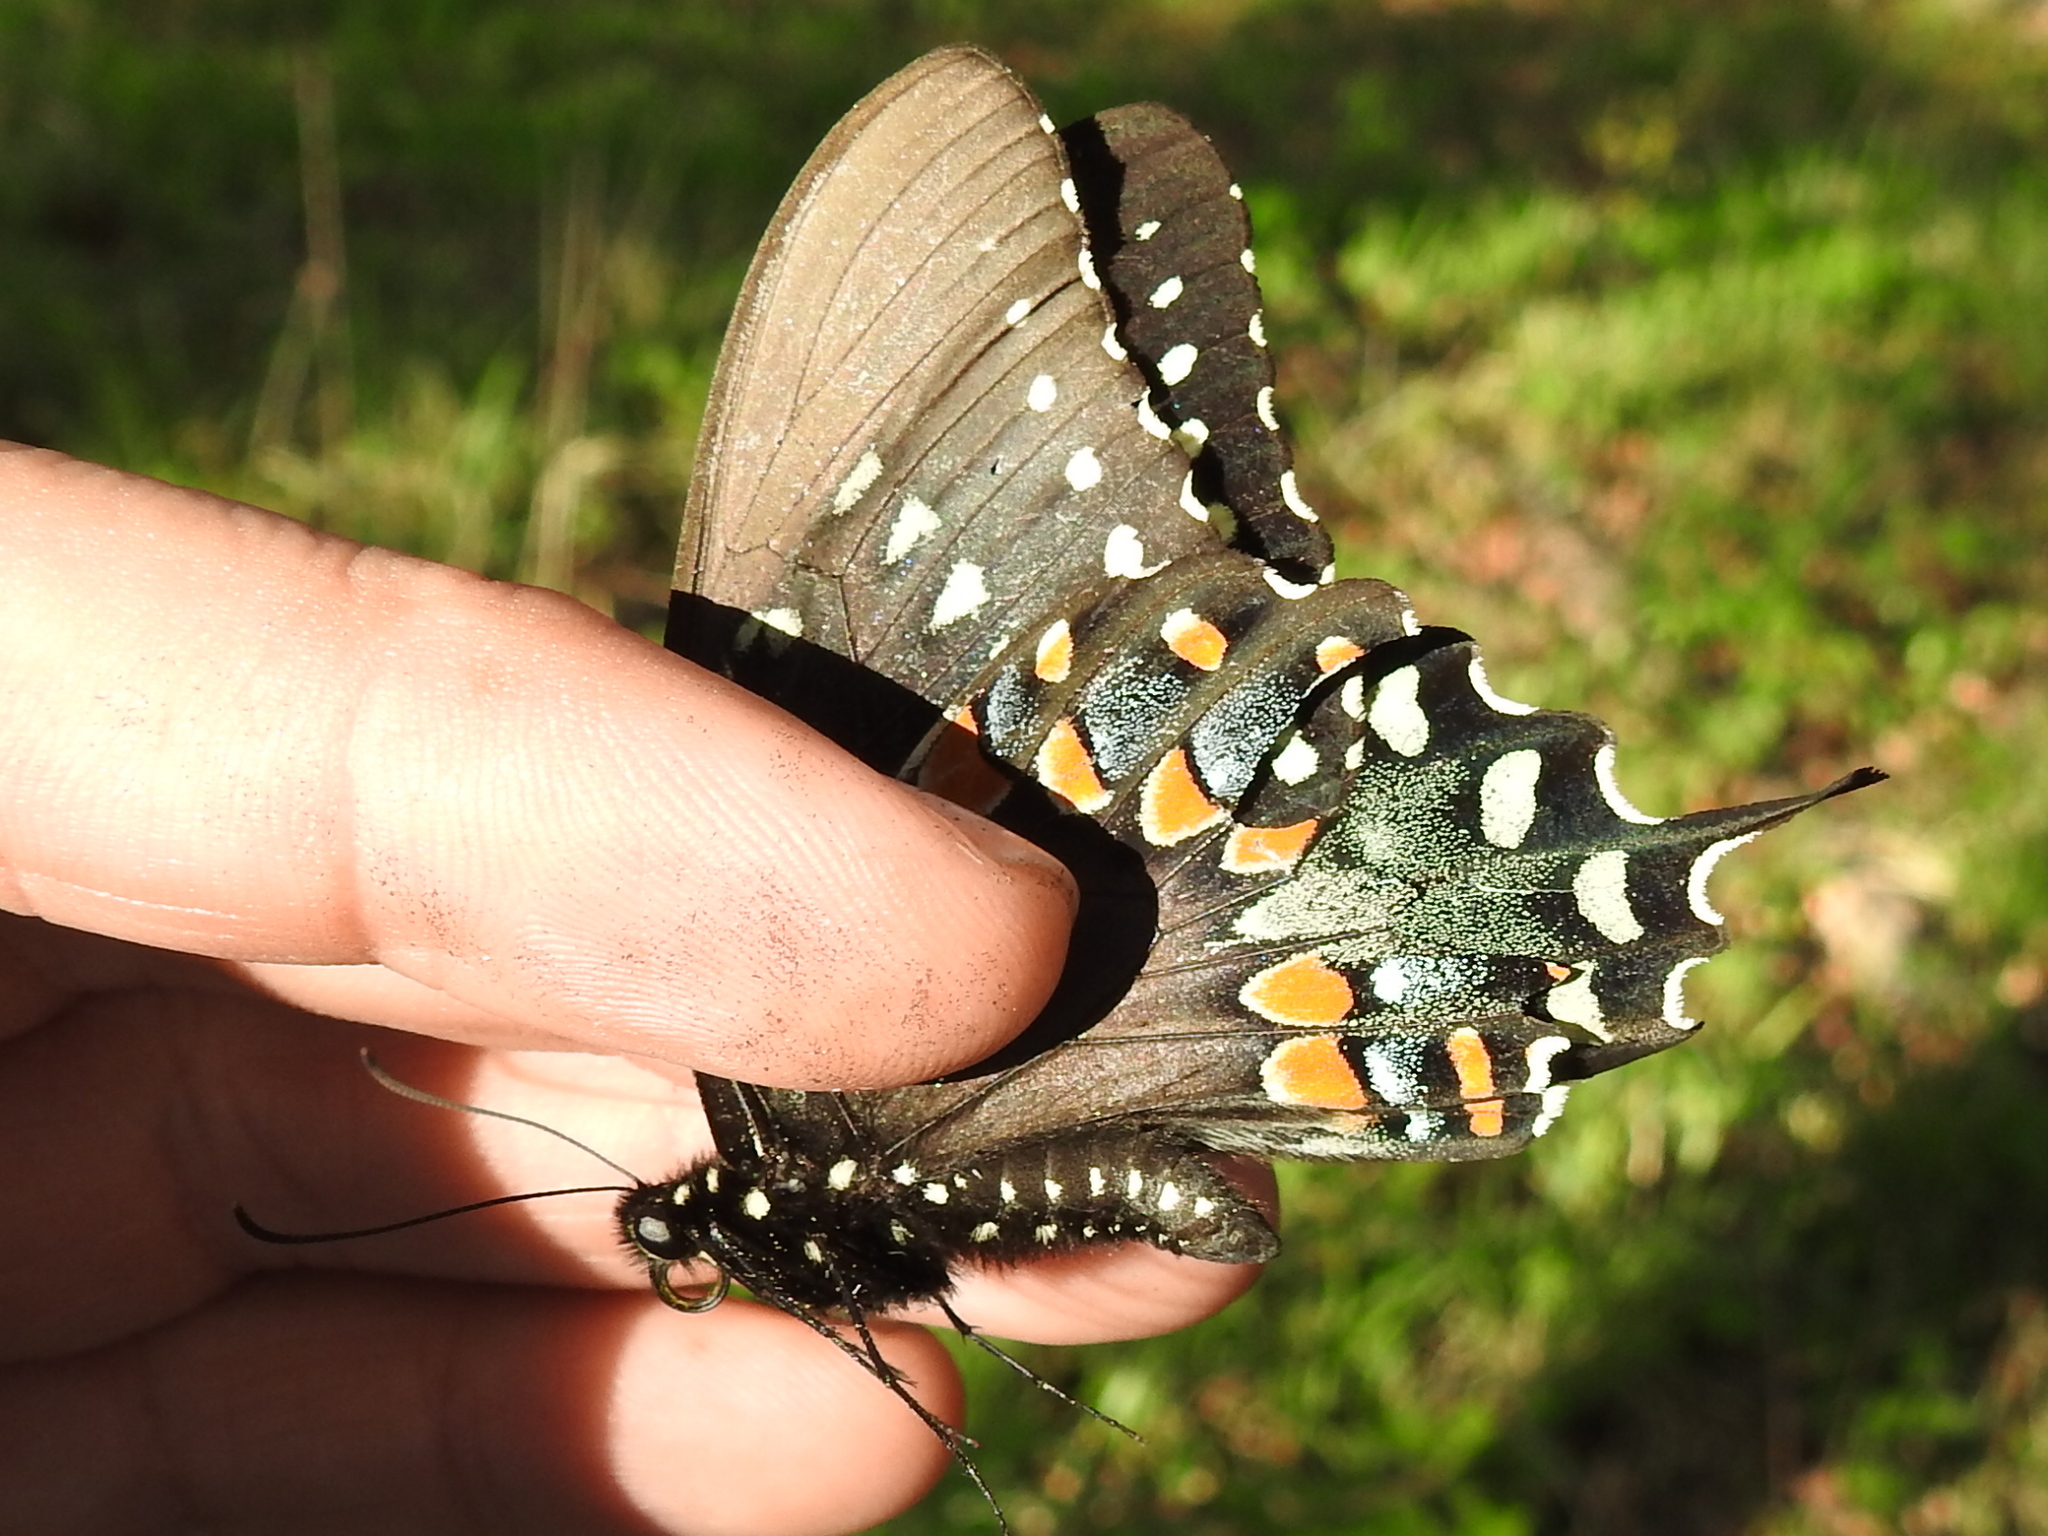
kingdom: Animalia
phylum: Arthropoda
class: Insecta
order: Lepidoptera
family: Papilionidae
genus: Papilio
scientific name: Papilio troilus
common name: Spicebush swallowtail
